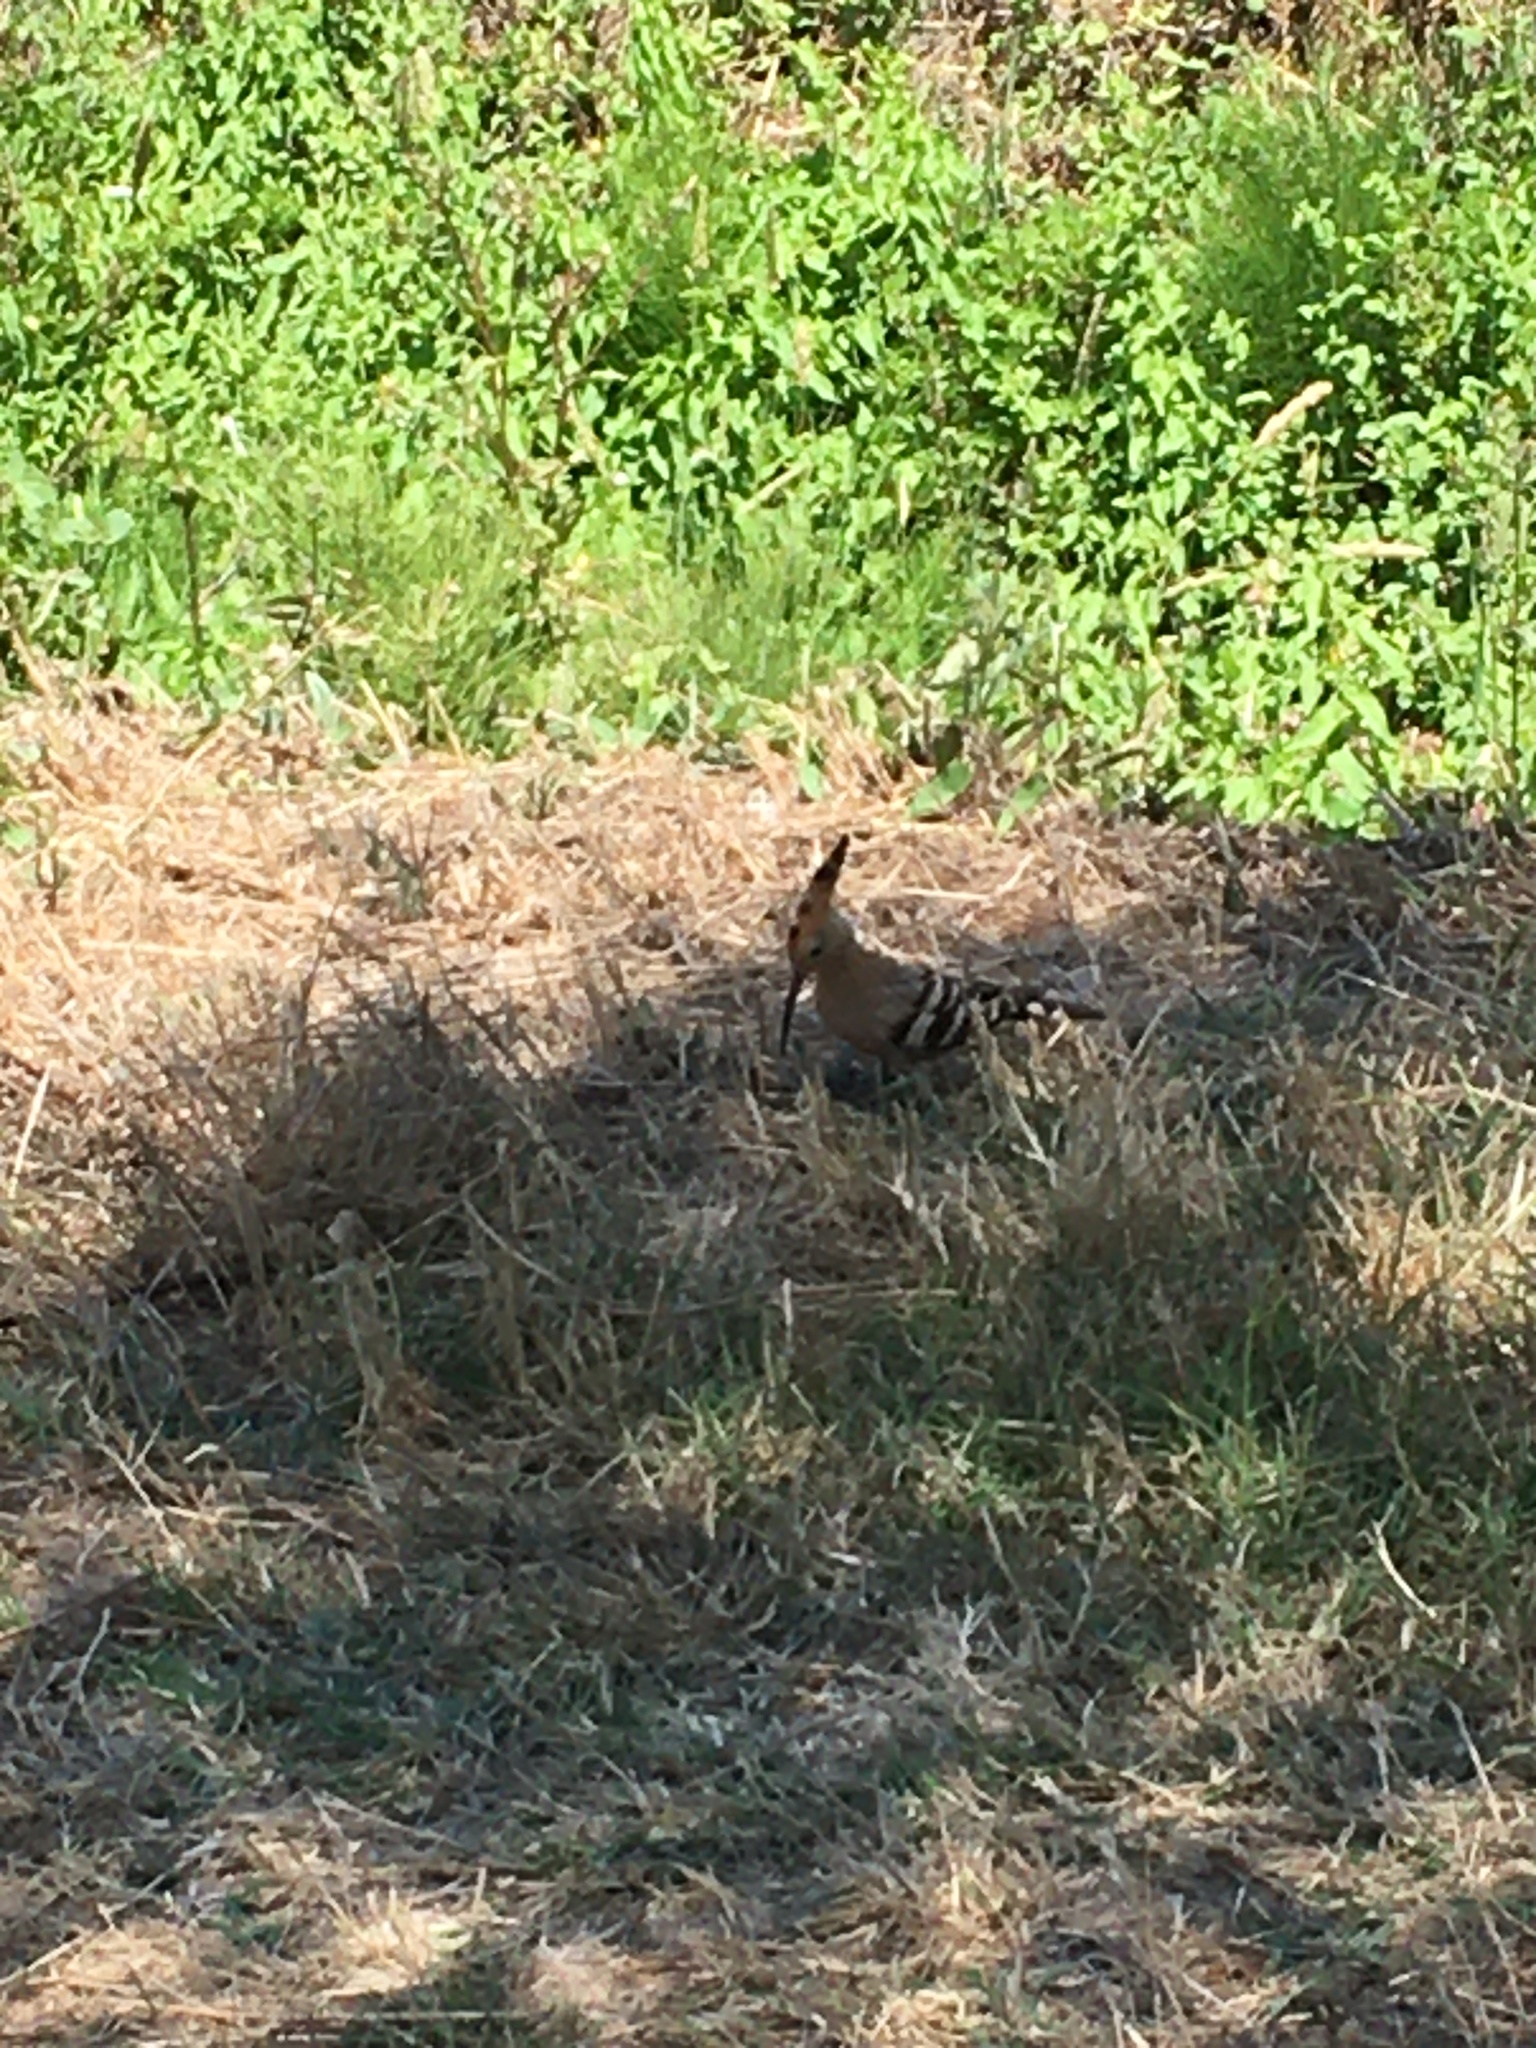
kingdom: Animalia
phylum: Chordata
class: Aves
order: Bucerotiformes
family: Upupidae
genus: Upupa
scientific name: Upupa epops
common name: Eurasian hoopoe
